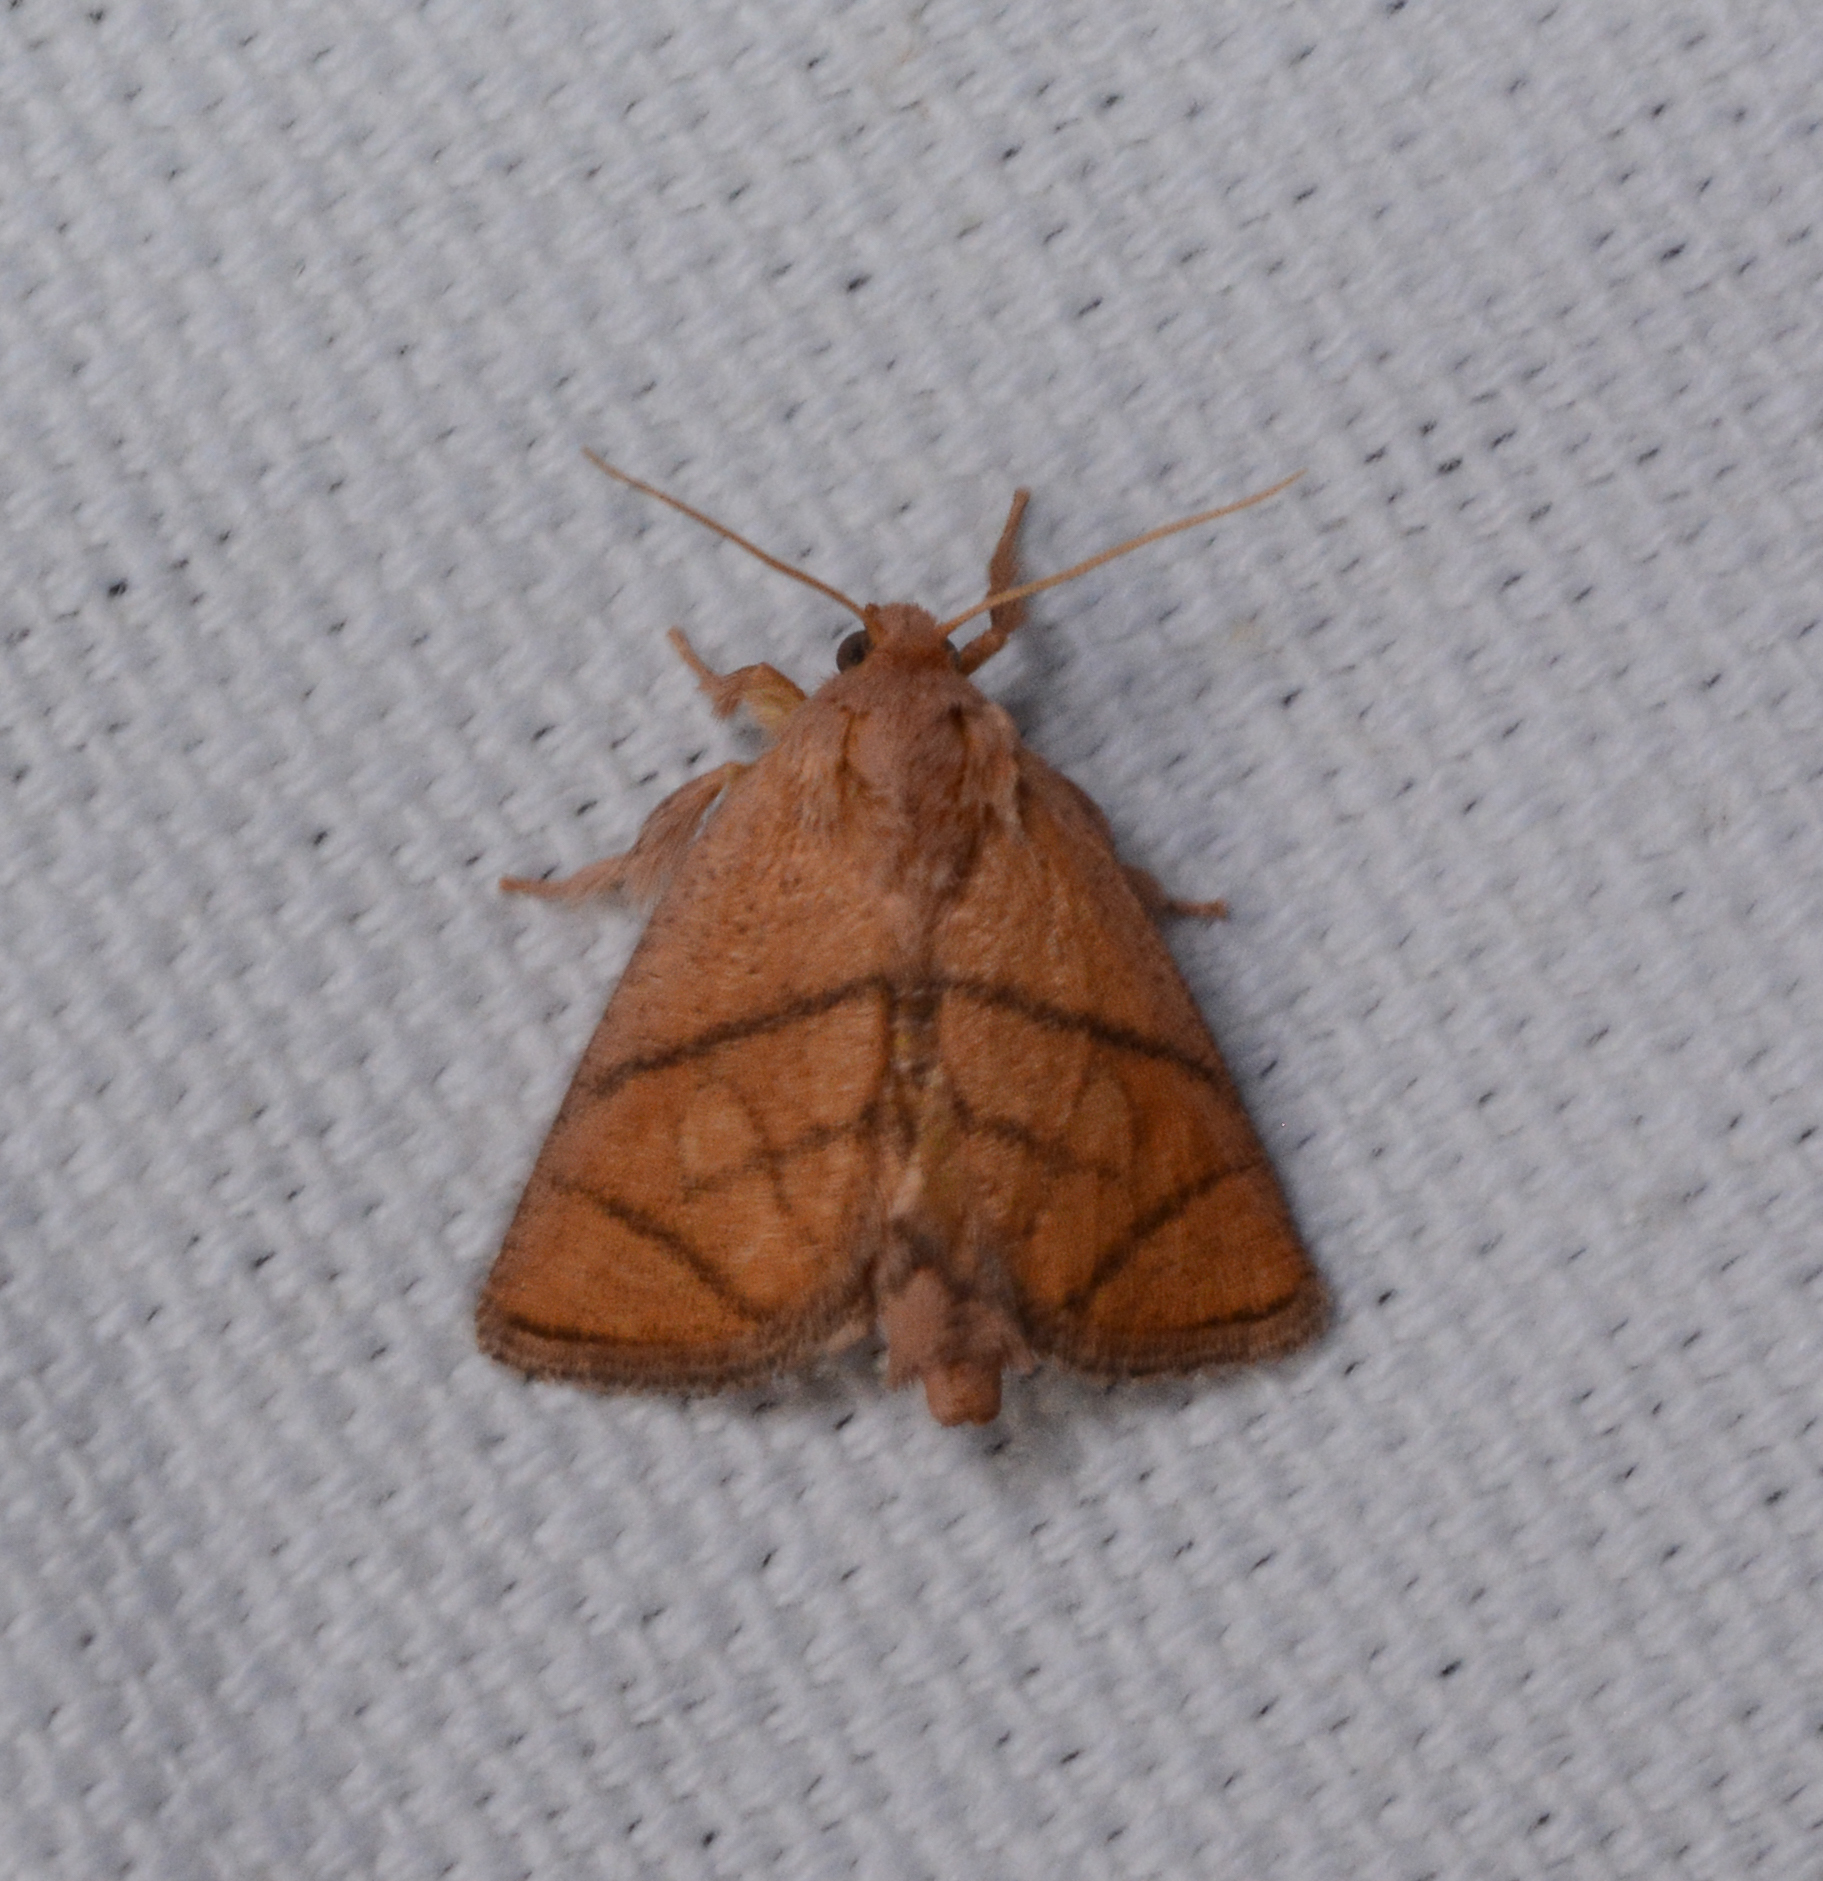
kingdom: Animalia
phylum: Arthropoda
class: Insecta
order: Lepidoptera
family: Limacodidae
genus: Apoda
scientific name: Apoda y-inversa
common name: Yellow-collared slug moth
